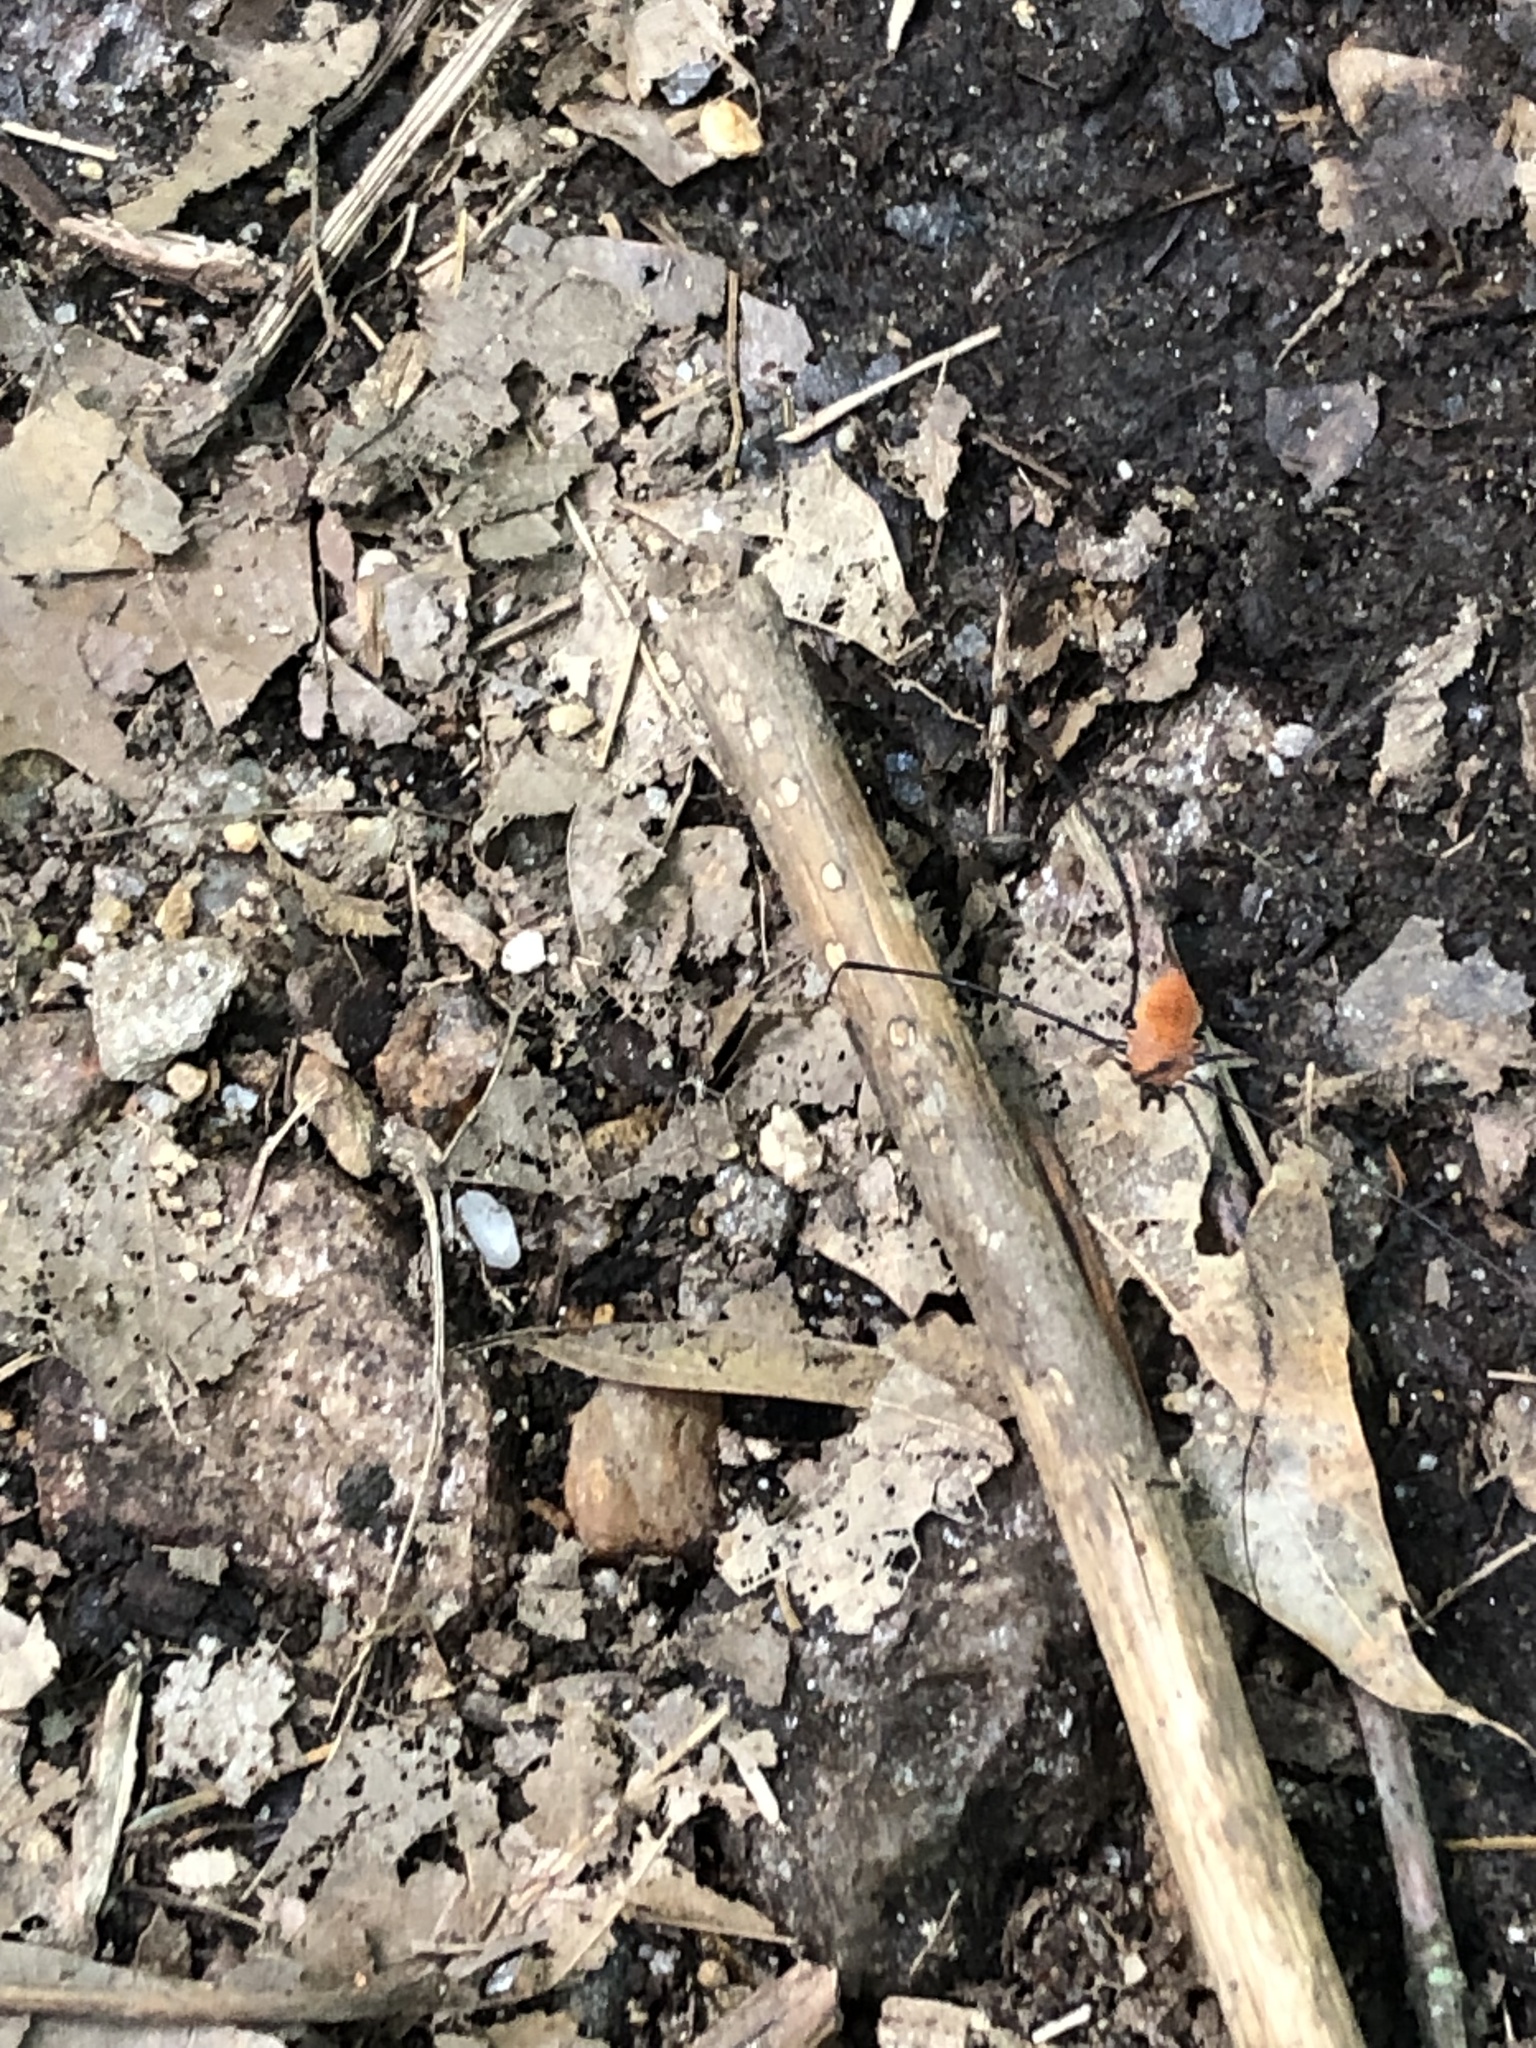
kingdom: Animalia
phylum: Arthropoda
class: Arachnida
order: Opiliones
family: Sclerosomatidae
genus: Leiobunum
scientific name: Leiobunum nigropalpi
